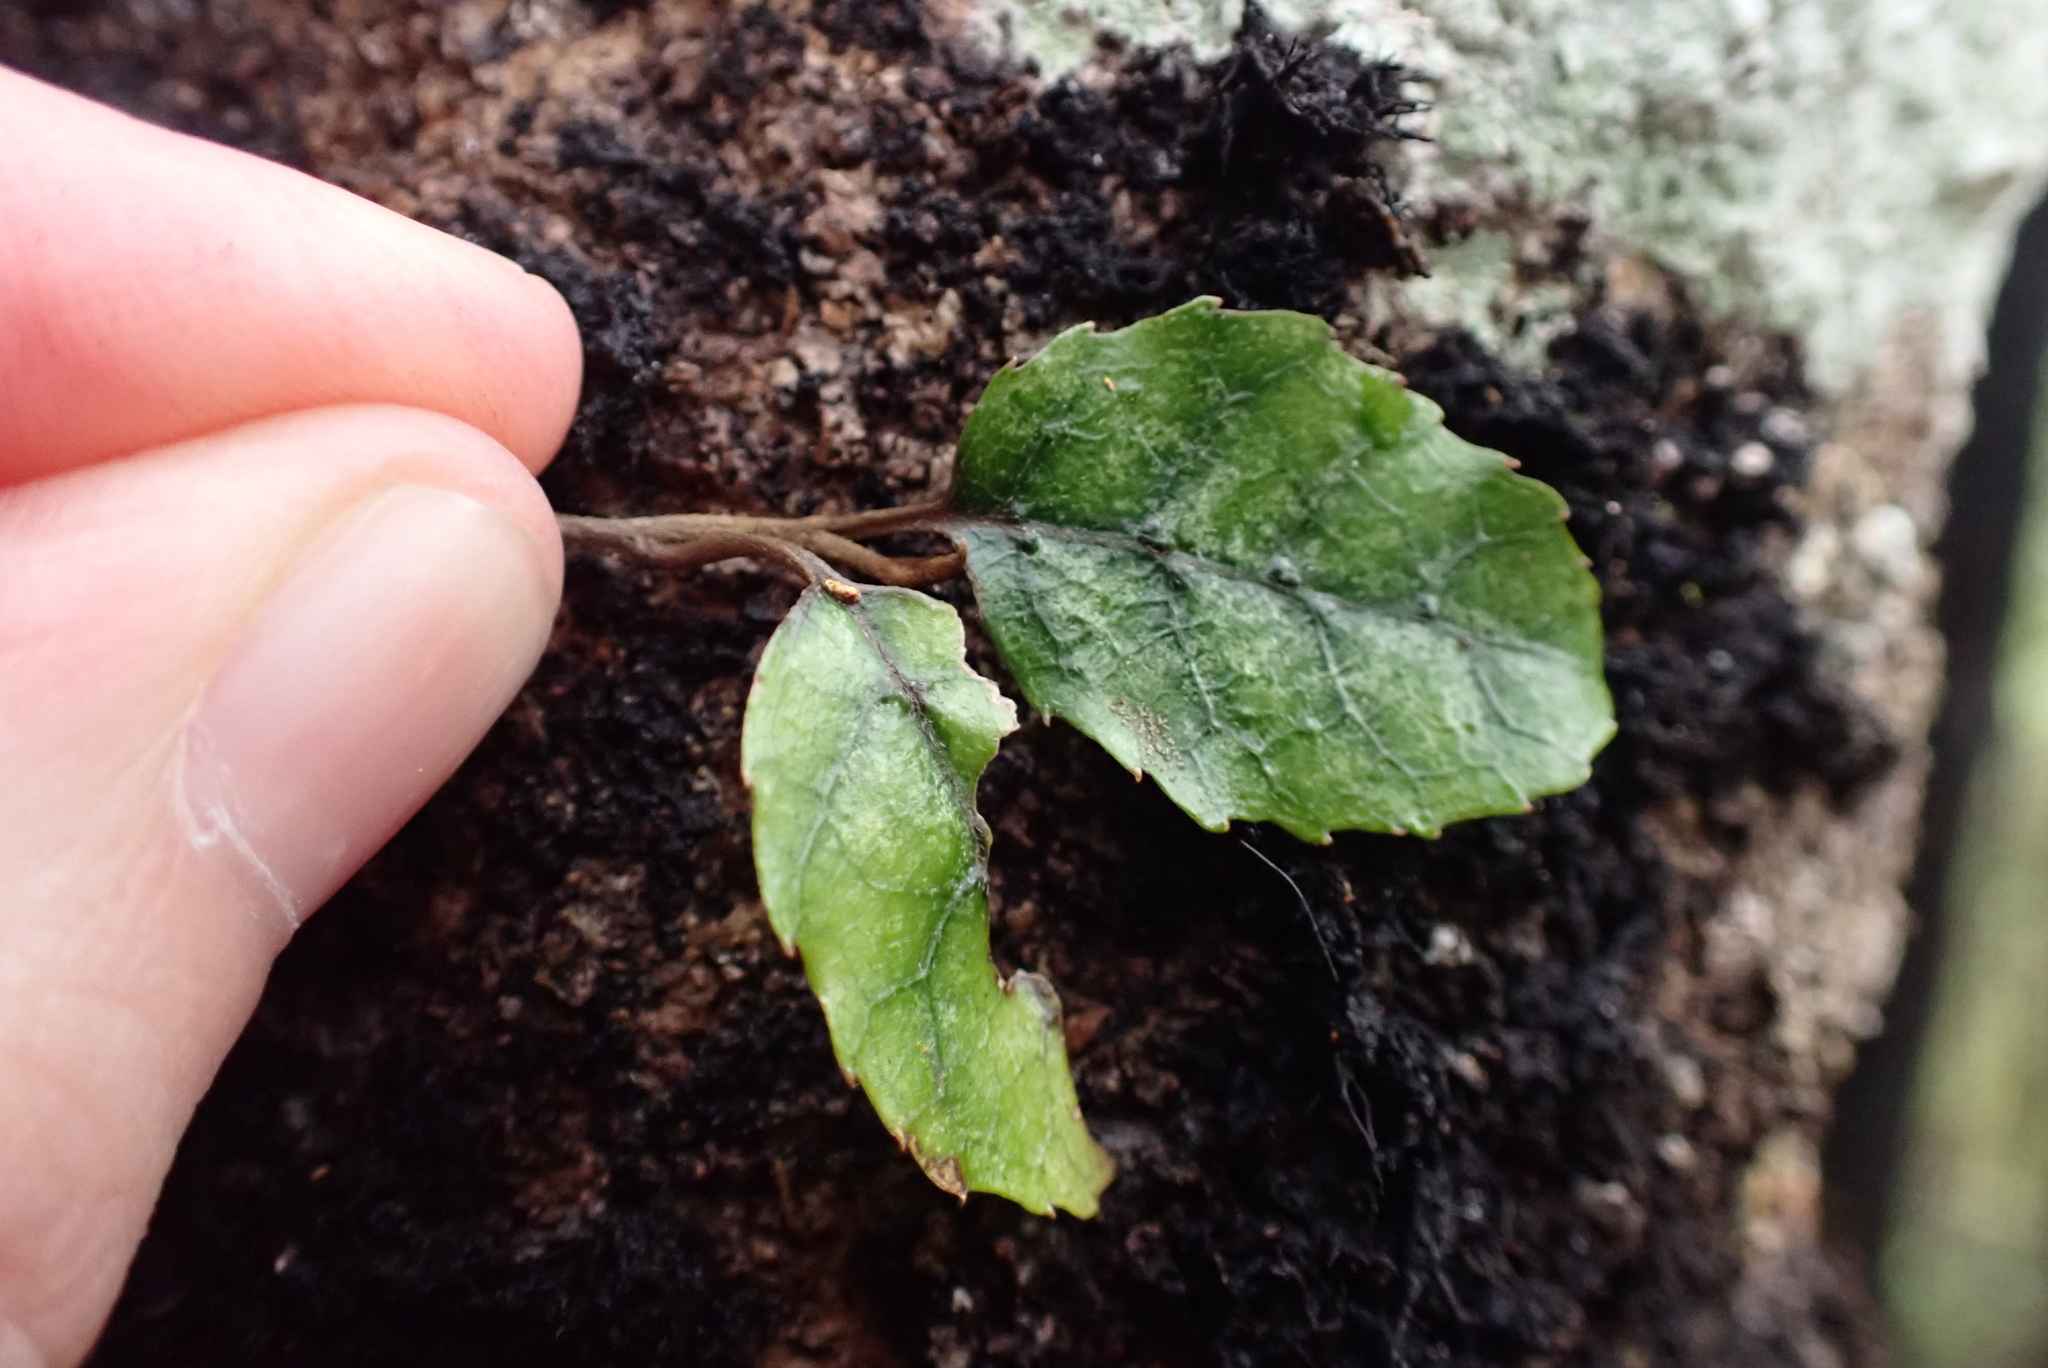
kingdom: Plantae
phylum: Tracheophyta
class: Magnoliopsida
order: Asterales
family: Rousseaceae
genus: Carpodetus
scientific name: Carpodetus serratus
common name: White mapau
